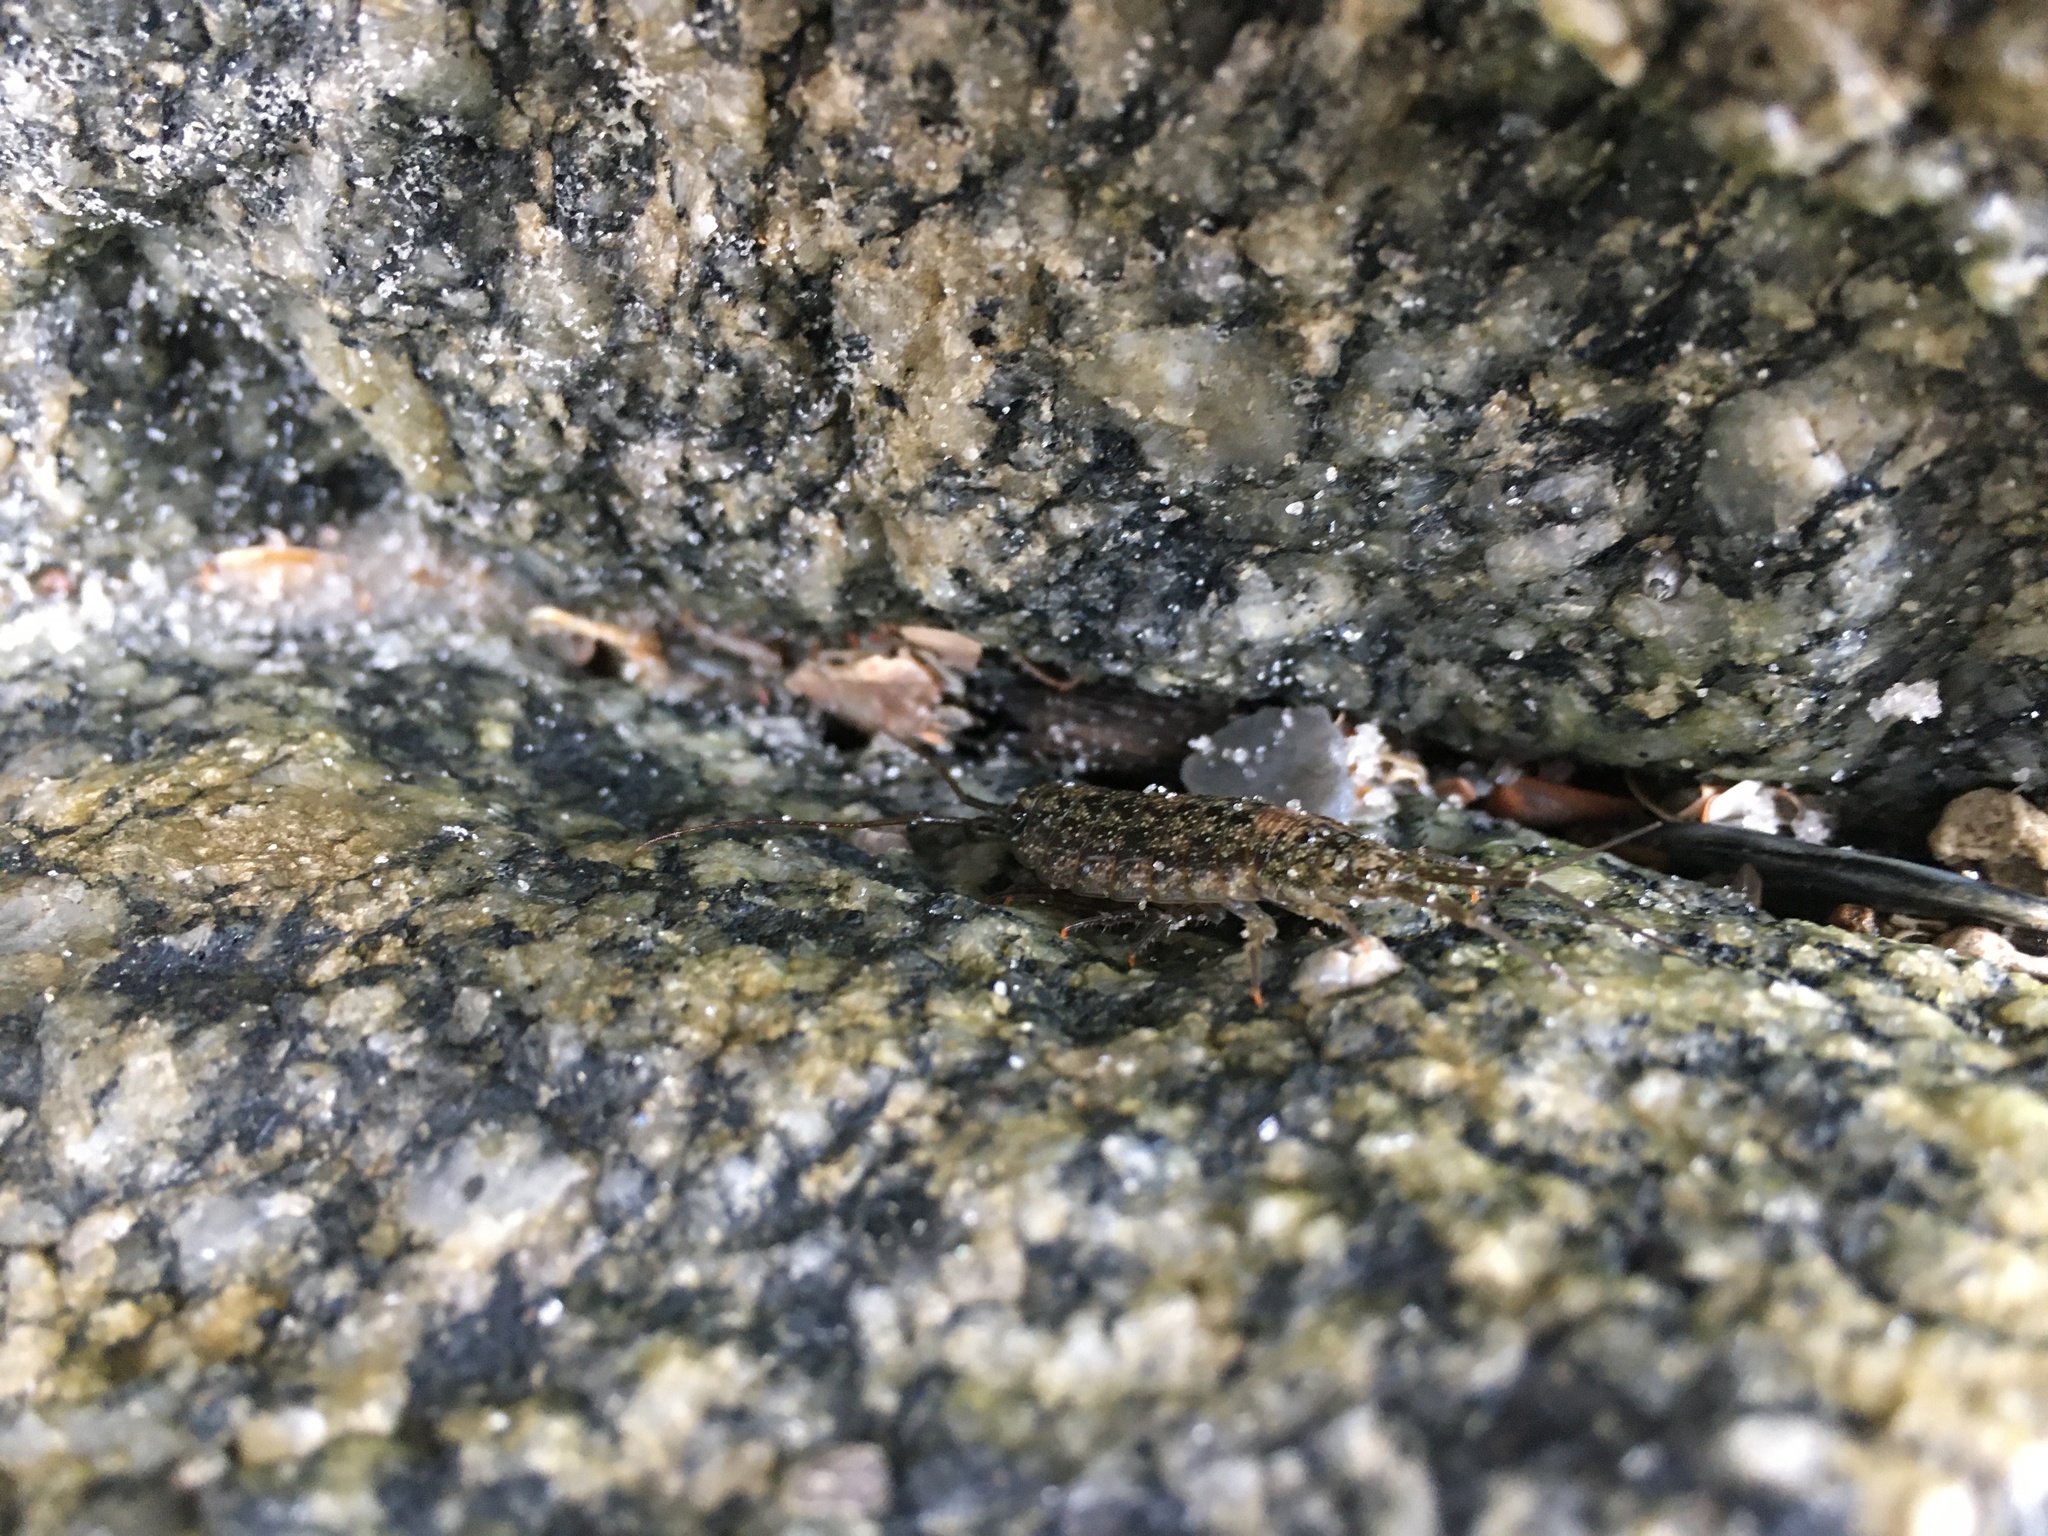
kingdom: Animalia
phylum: Arthropoda
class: Malacostraca
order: Isopoda
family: Ligiidae
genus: Ligia
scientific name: Ligia exotica
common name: Wharf roach
